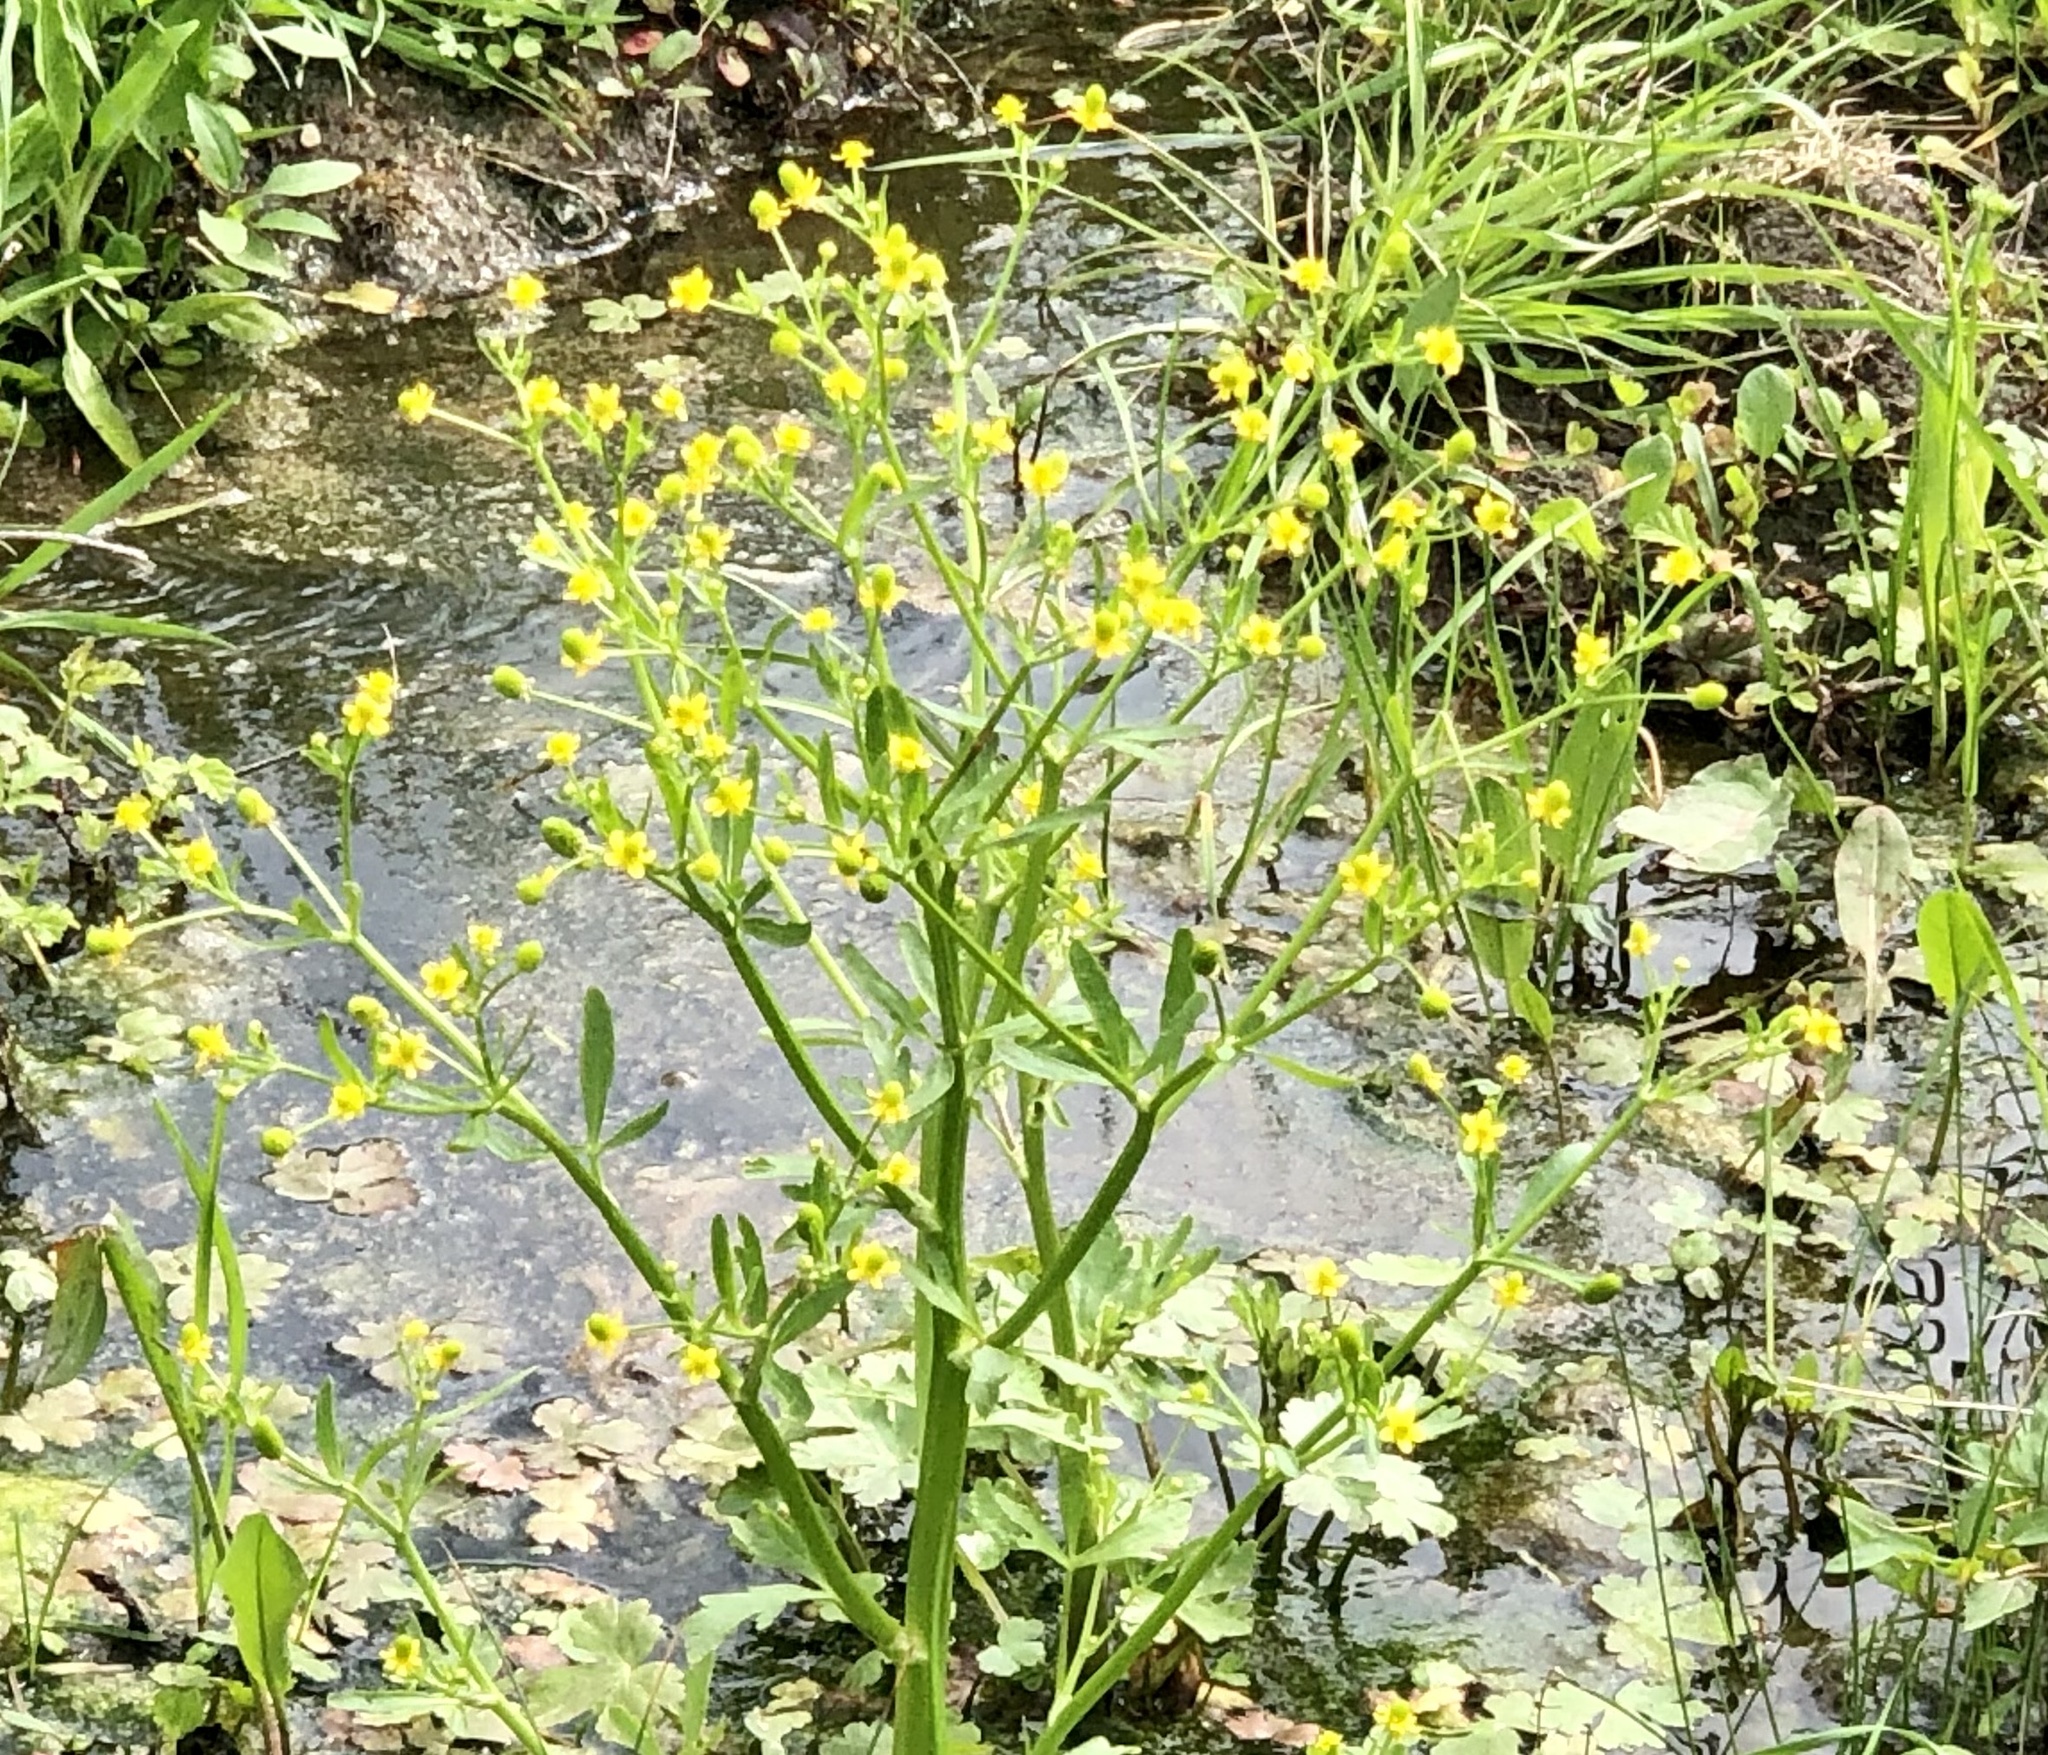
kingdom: Plantae
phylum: Tracheophyta
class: Magnoliopsida
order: Ranunculales
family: Ranunculaceae
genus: Ranunculus
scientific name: Ranunculus sceleratus
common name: Celery-leaved buttercup
